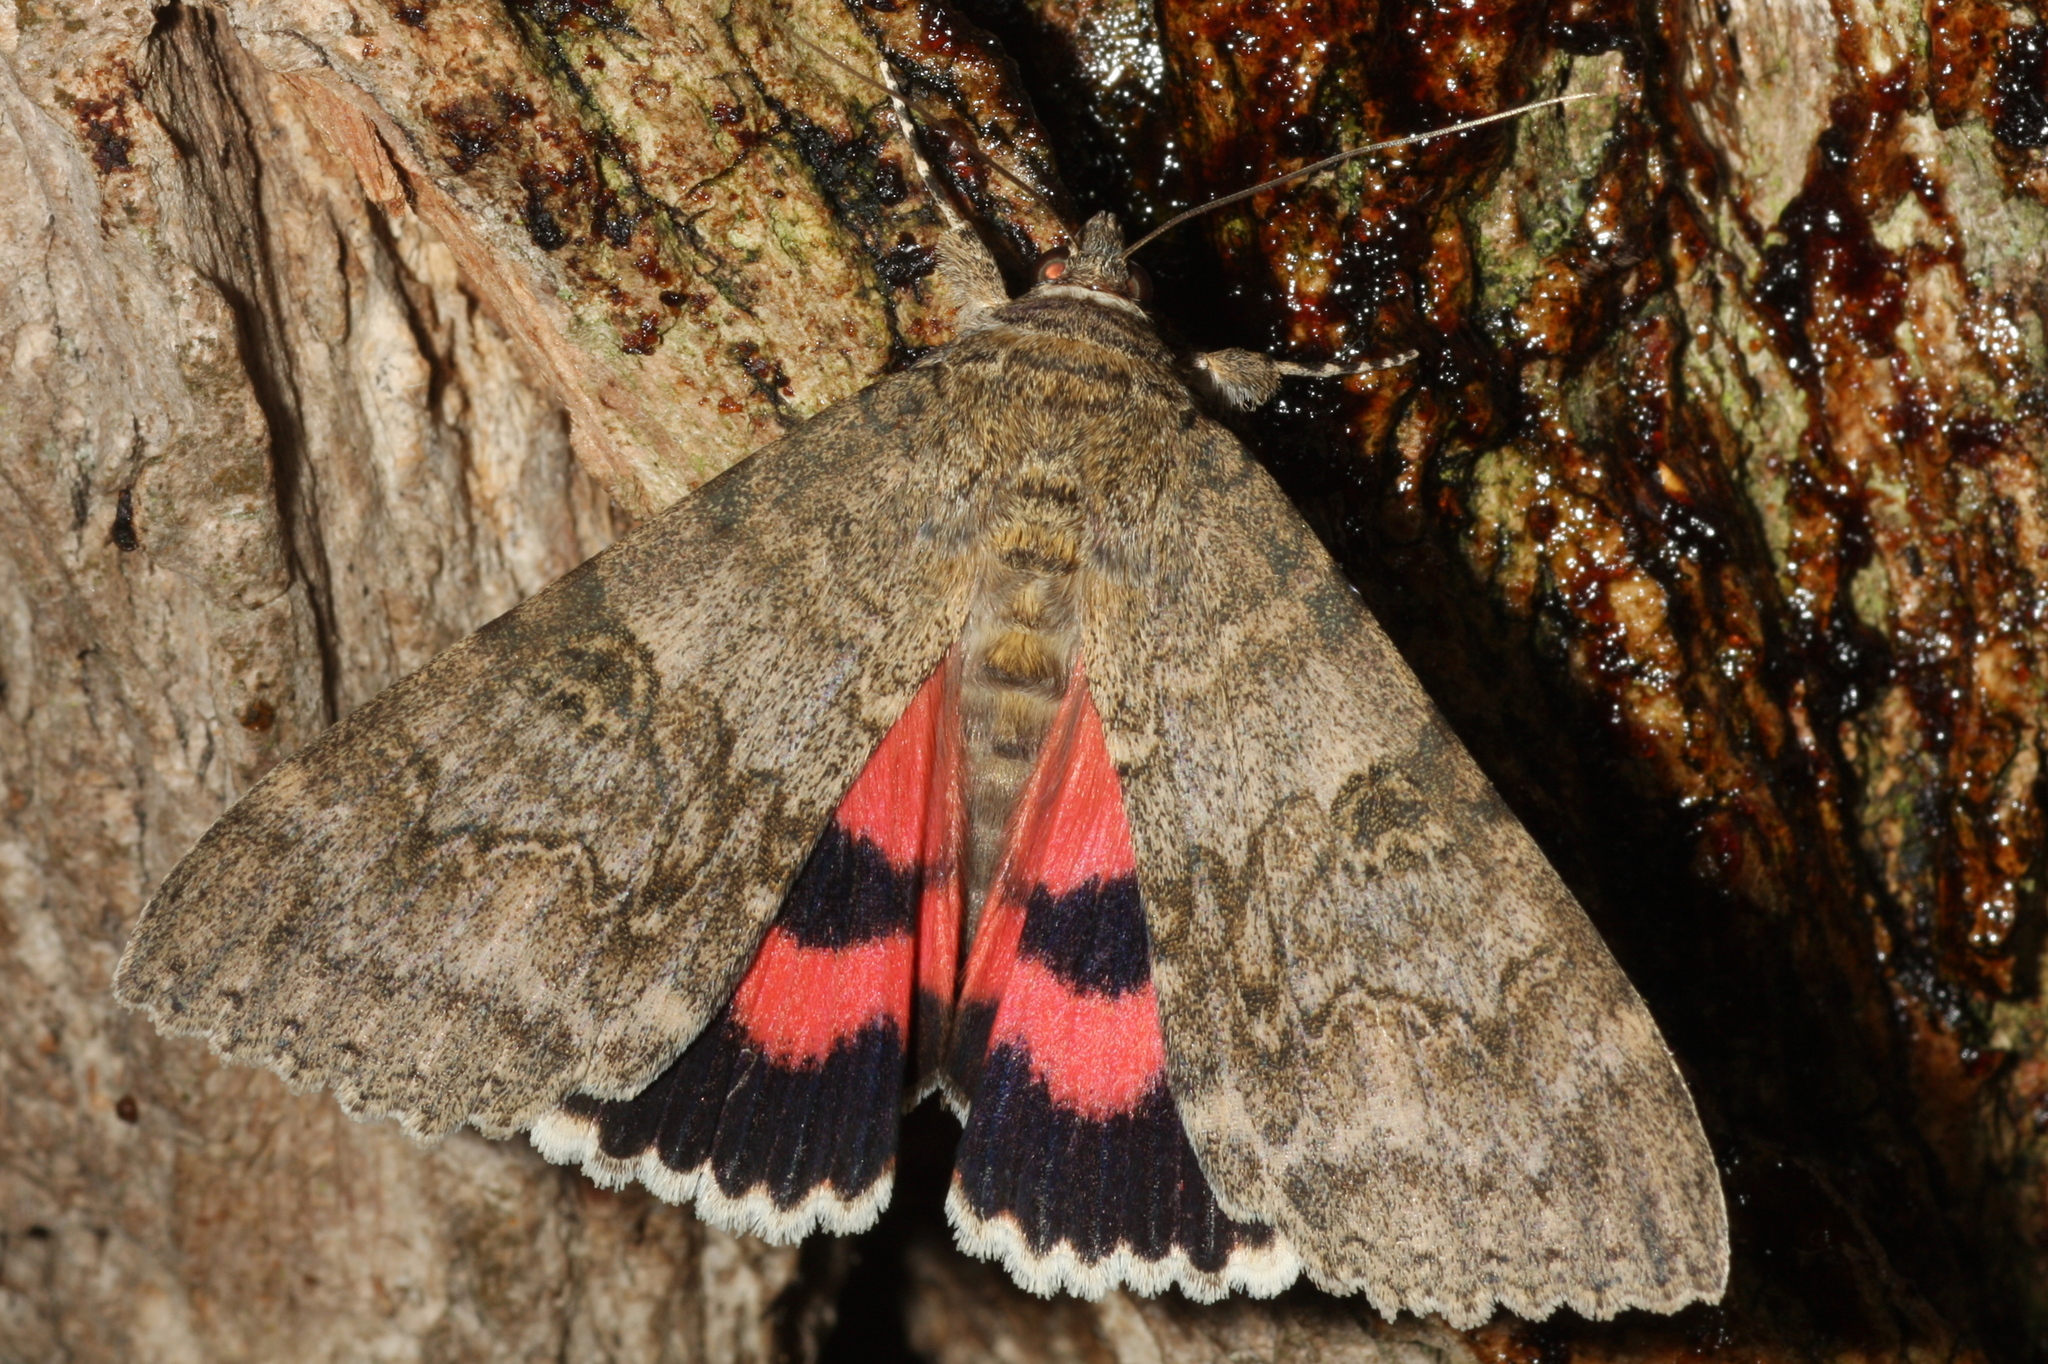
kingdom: Animalia
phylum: Arthropoda
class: Insecta
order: Lepidoptera
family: Erebidae
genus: Catocala
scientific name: Catocala nupta
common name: Red underwing
